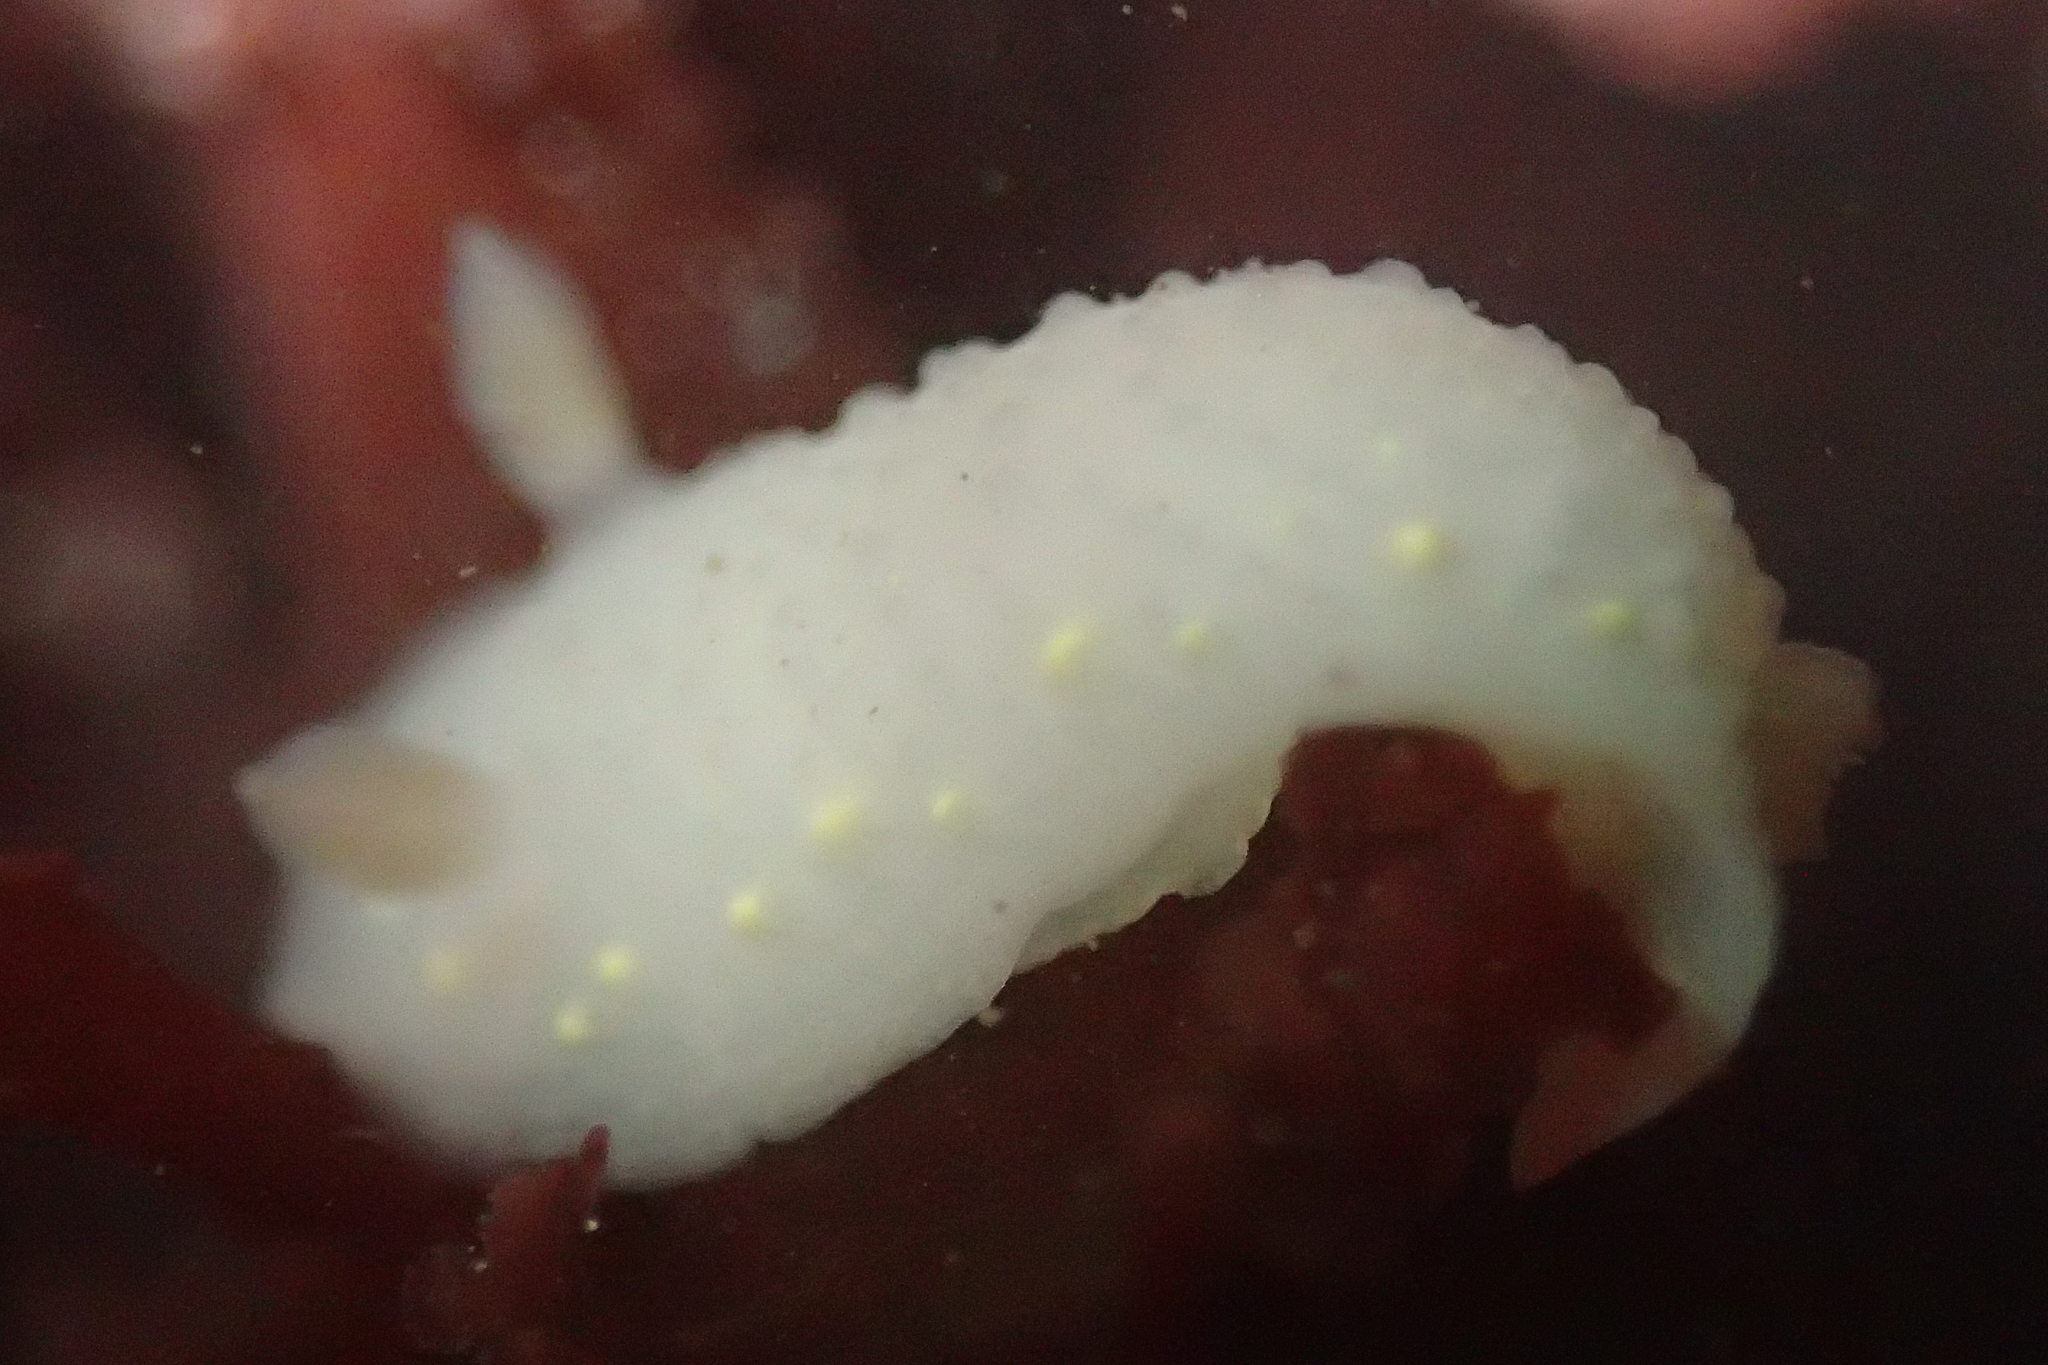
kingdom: Animalia
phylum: Mollusca
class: Gastropoda
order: Nudibranchia
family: Cadlinidae
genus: Cadlina
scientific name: Cadlina modesta
